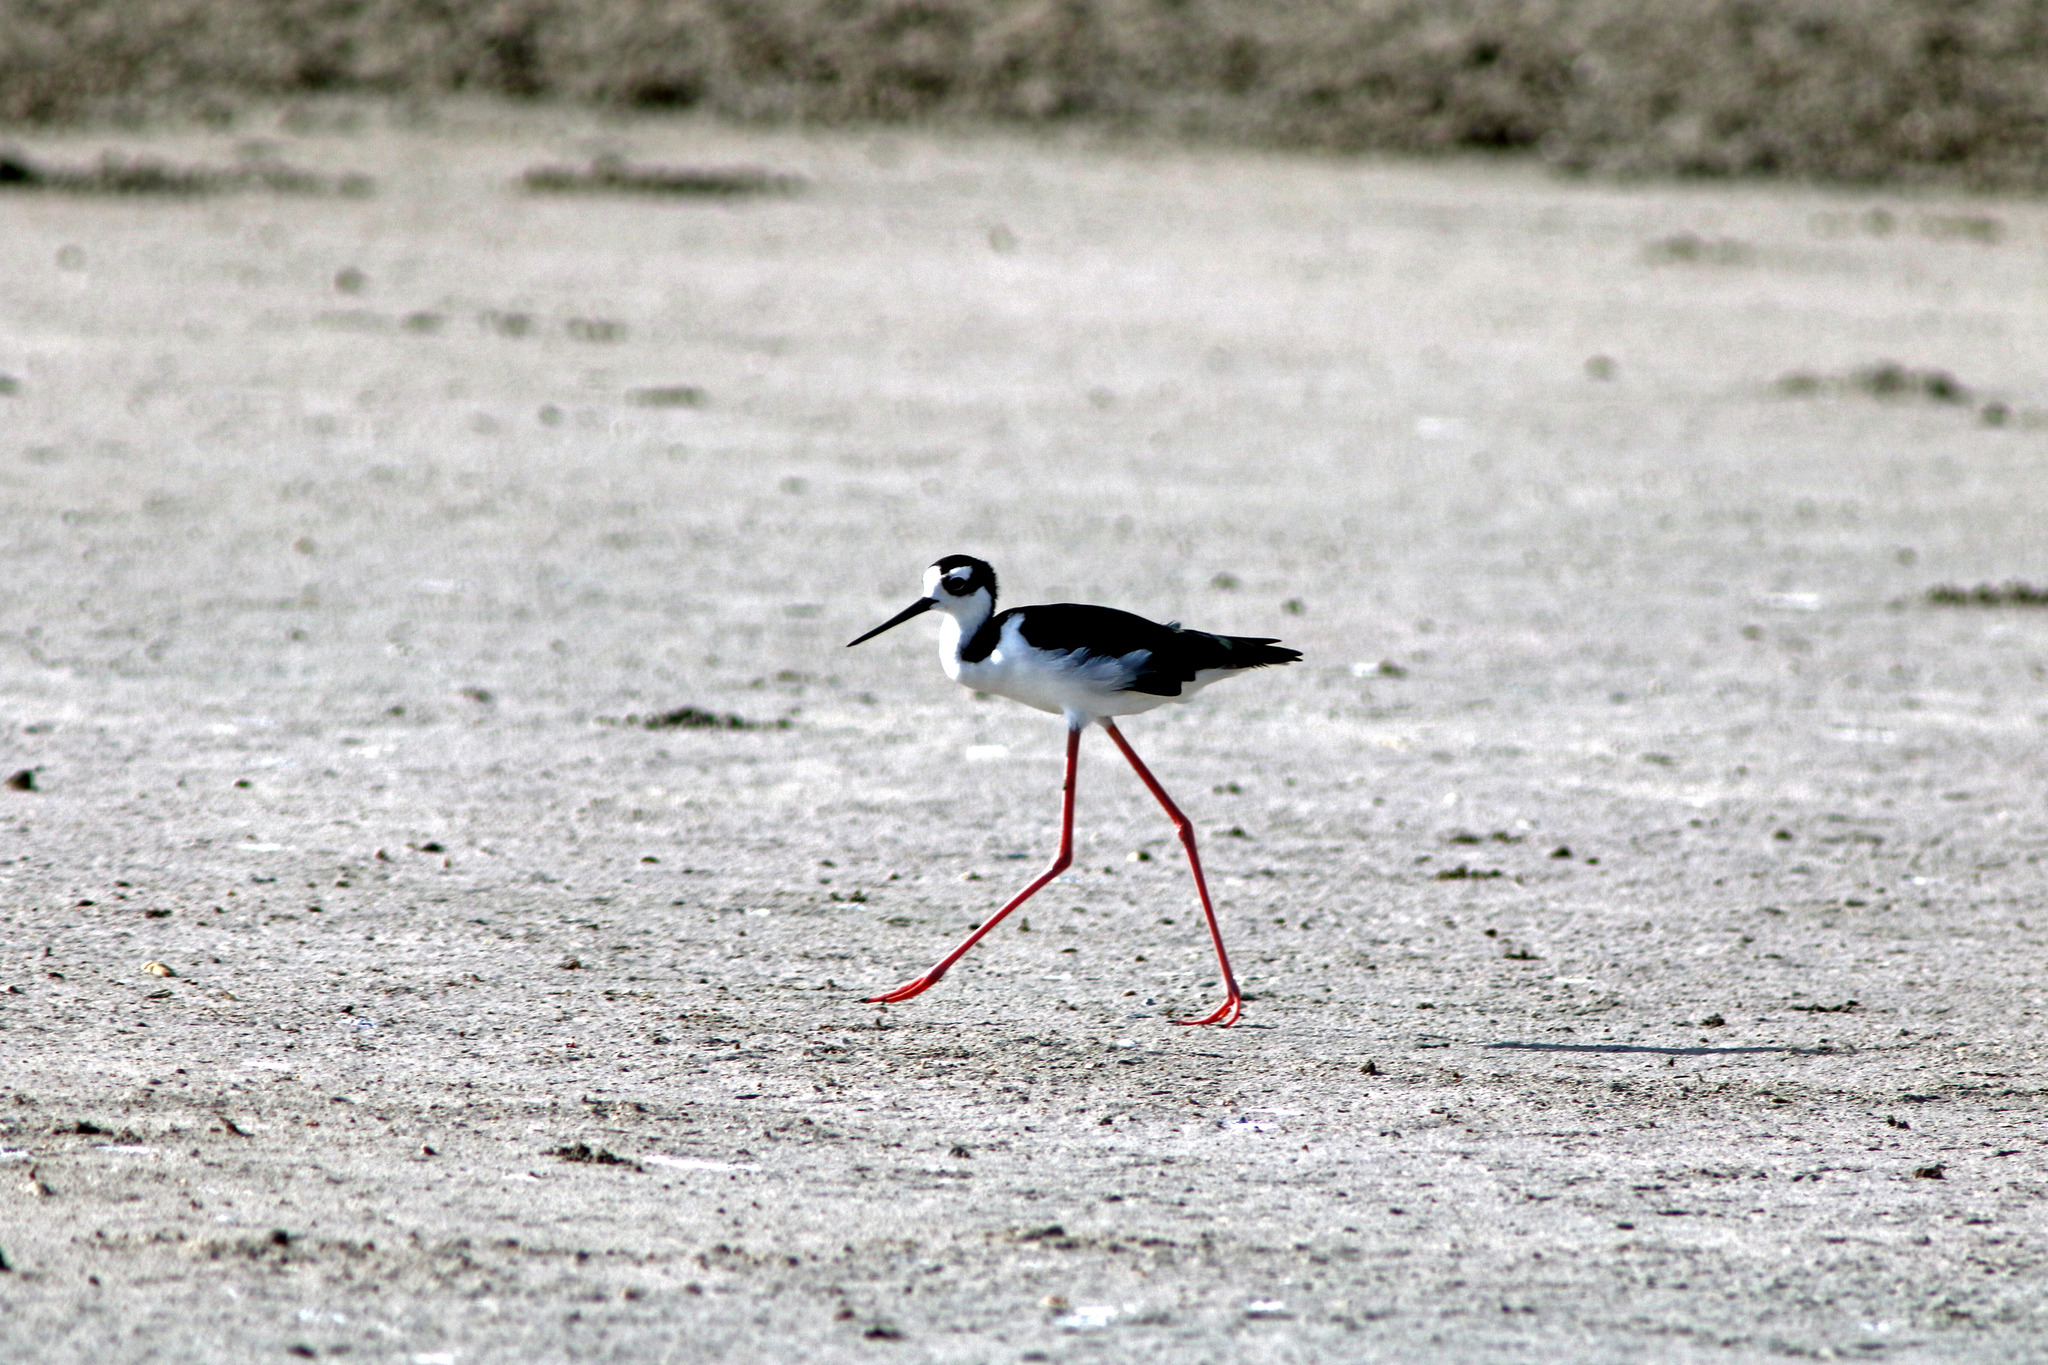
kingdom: Animalia
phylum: Chordata
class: Aves
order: Charadriiformes
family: Recurvirostridae
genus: Himantopus
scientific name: Himantopus mexicanus
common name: Black-necked stilt
